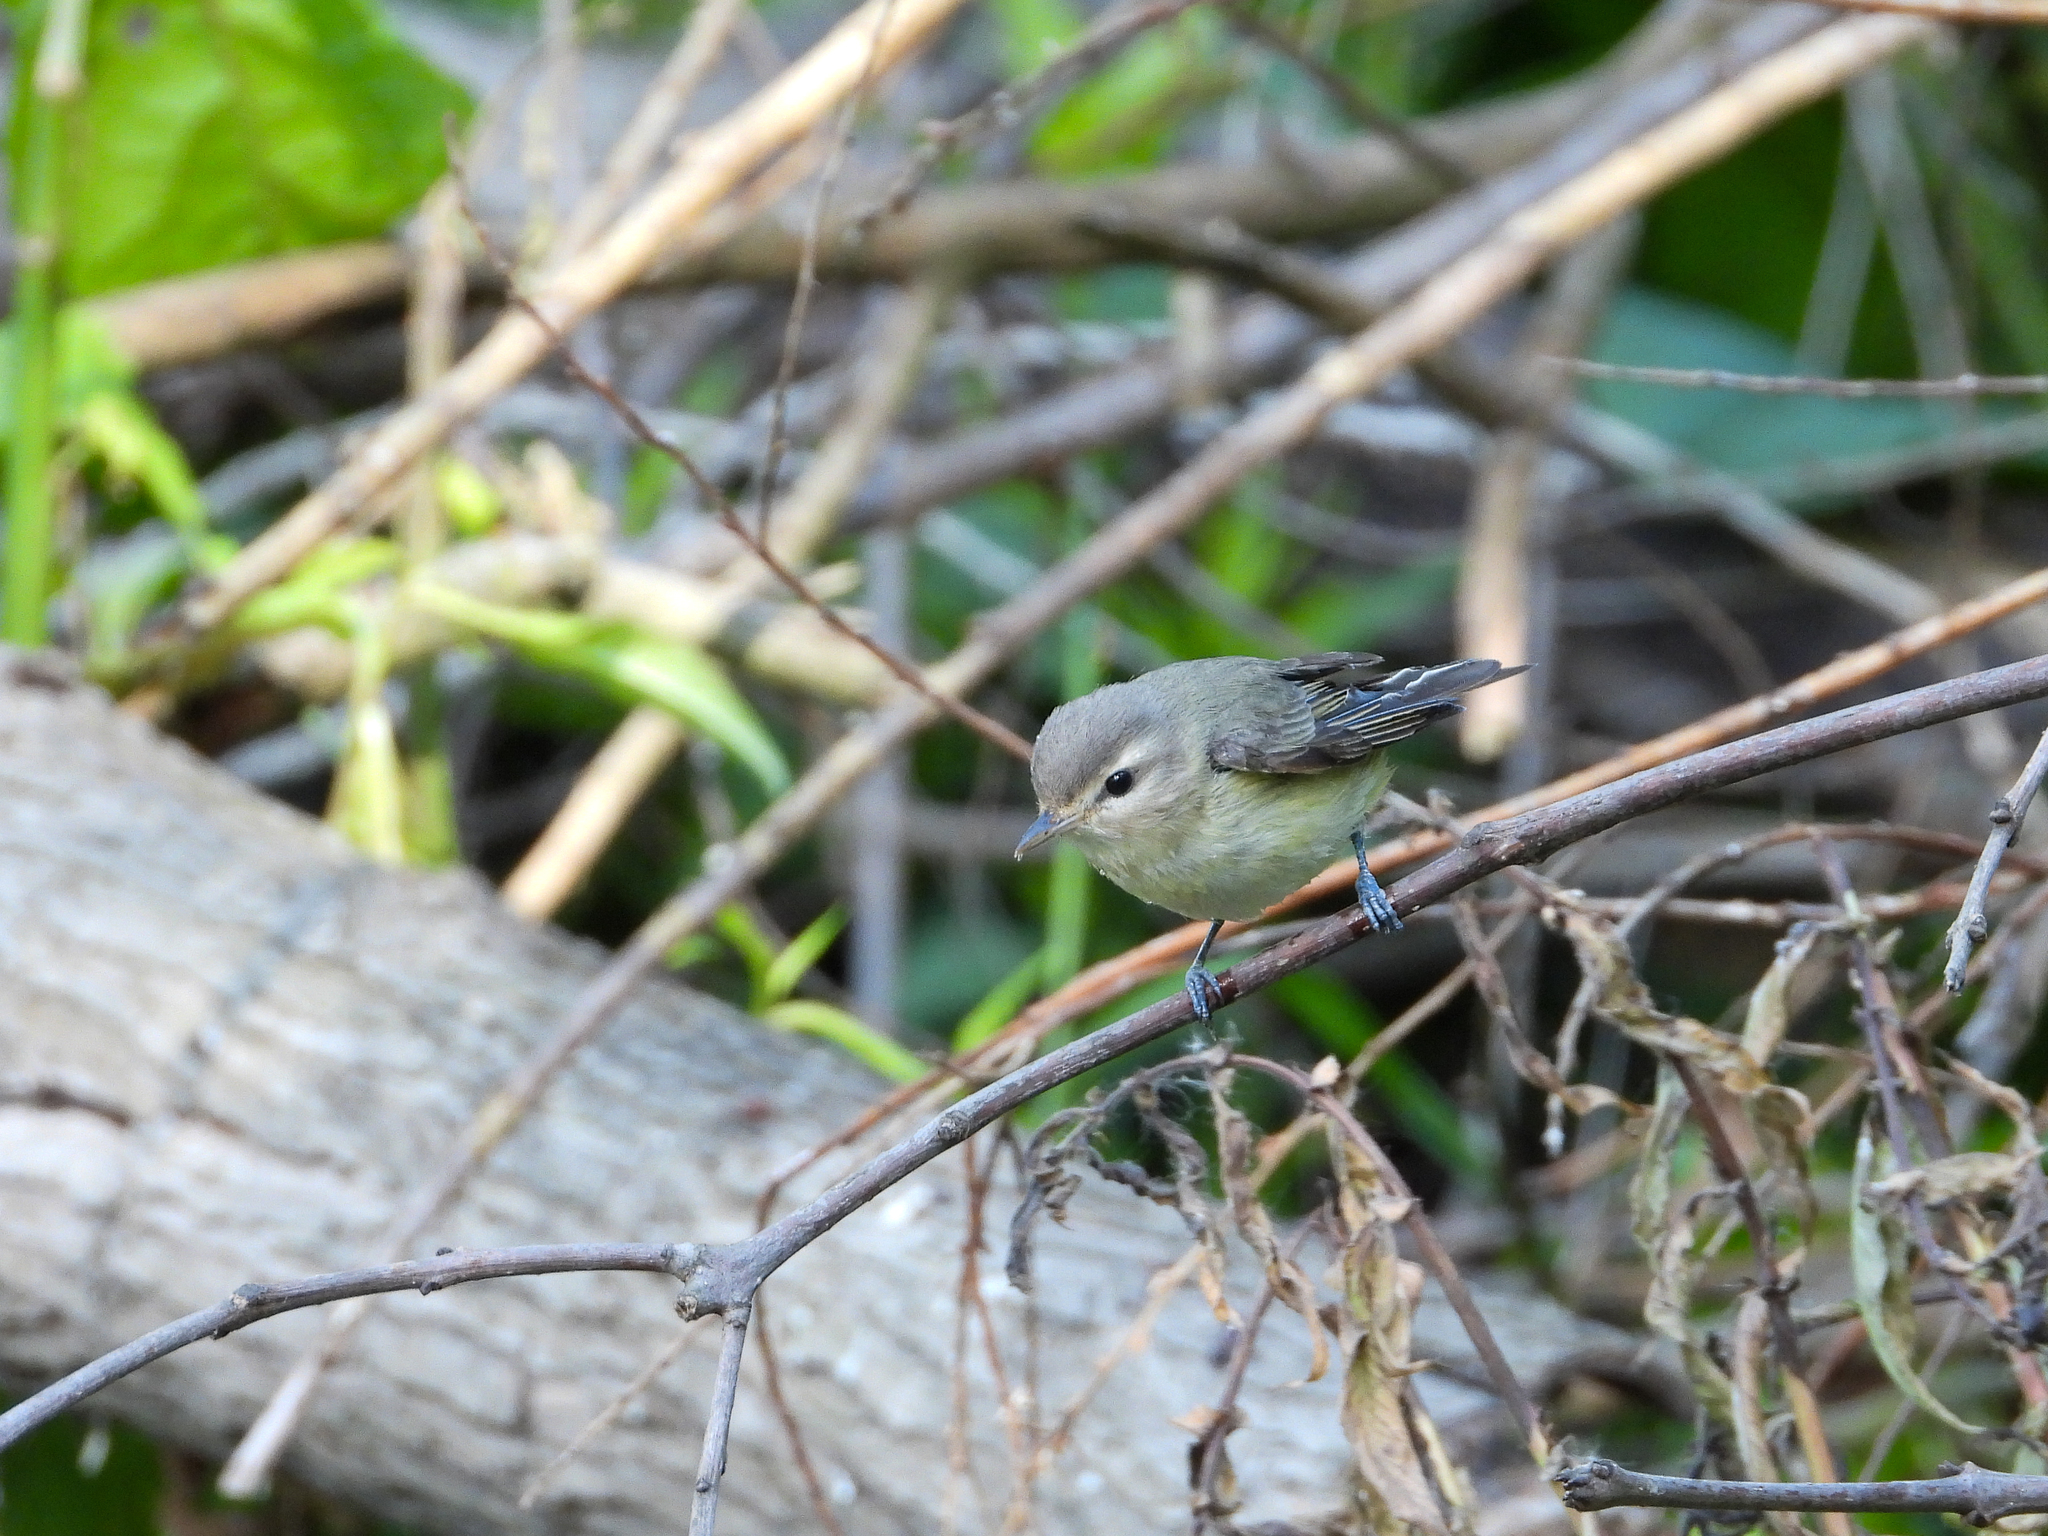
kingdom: Animalia
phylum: Chordata
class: Aves
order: Passeriformes
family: Vireonidae
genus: Vireo
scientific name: Vireo gilvus
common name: Warbling vireo
